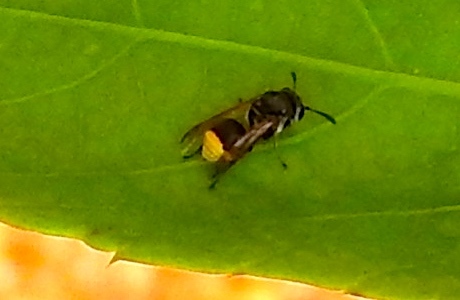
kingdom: Animalia
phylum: Arthropoda
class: Insecta
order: Hymenoptera
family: Vespidae
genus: Brachygastra
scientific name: Brachygastra azteca
